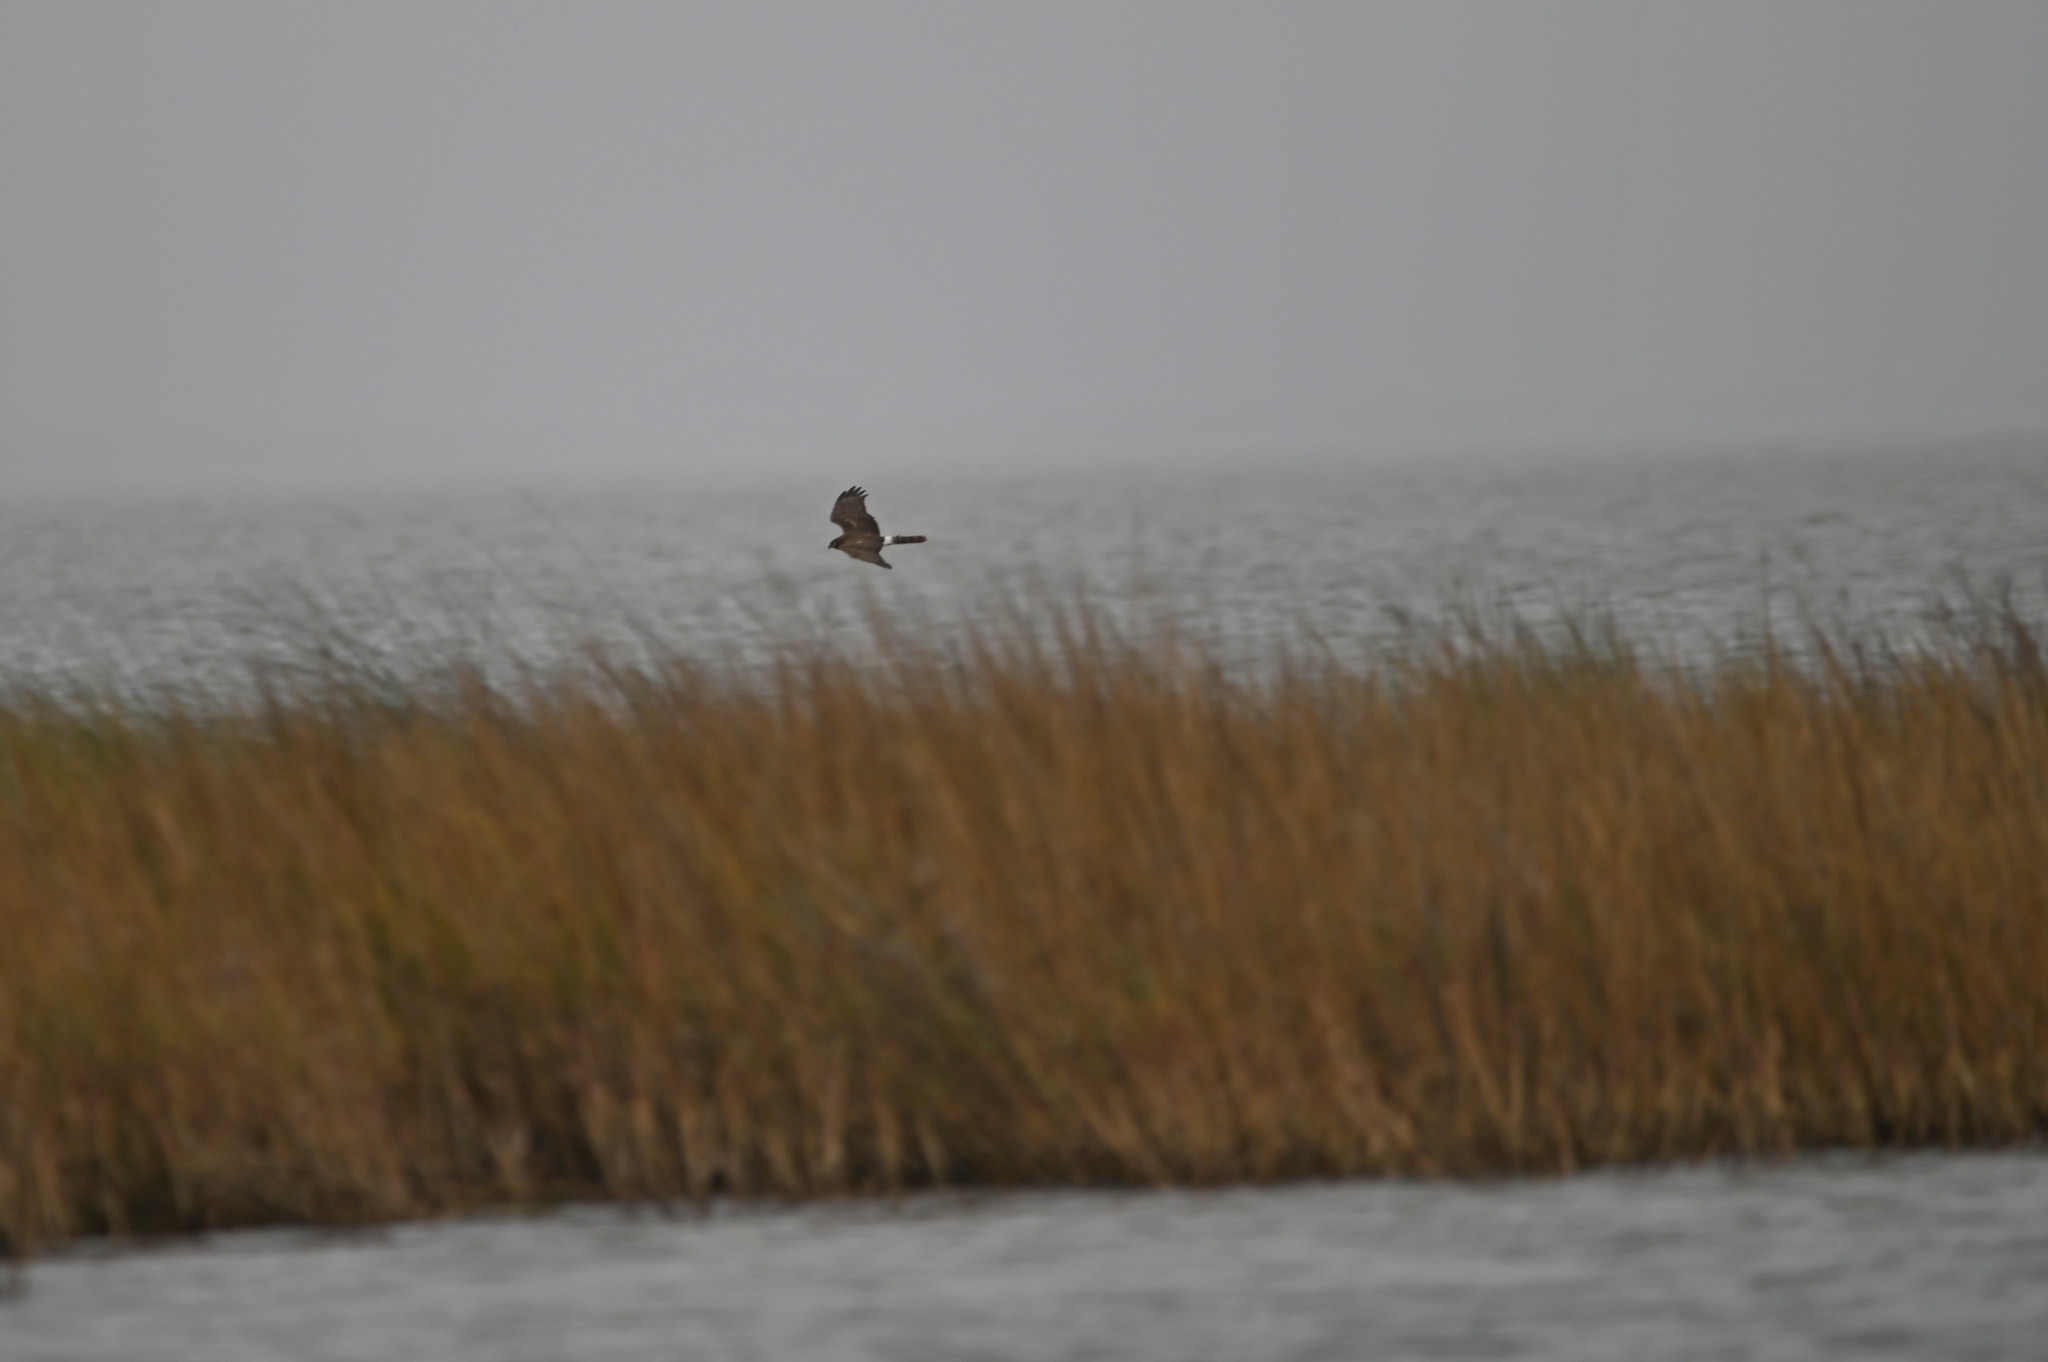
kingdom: Animalia
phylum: Chordata
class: Aves
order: Accipitriformes
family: Accipitridae
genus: Circus
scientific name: Circus cyaneus
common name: Hen harrier
